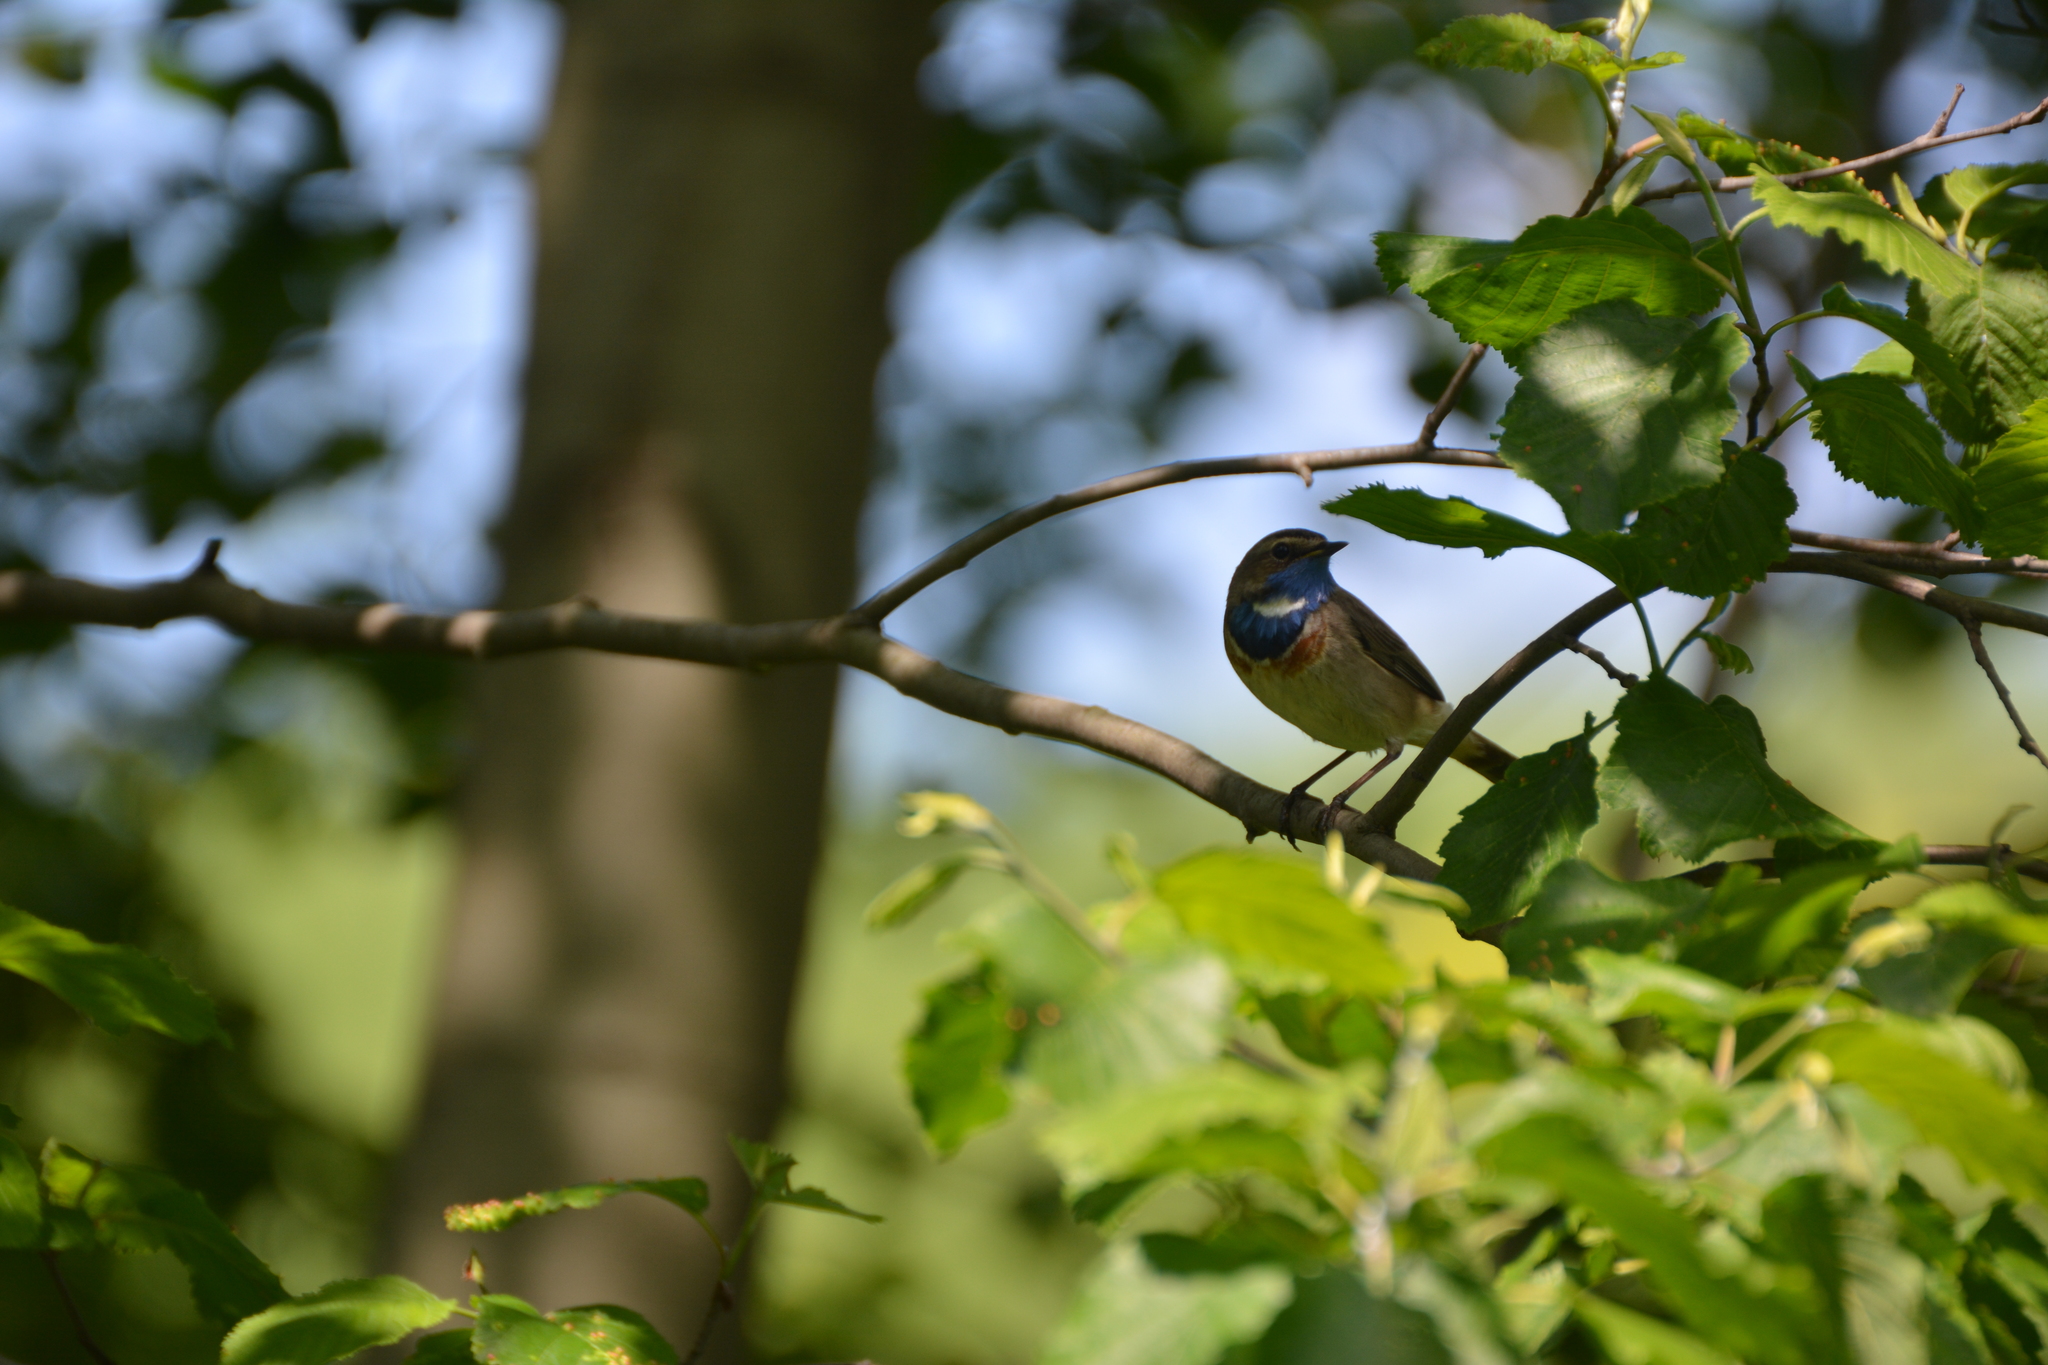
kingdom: Animalia
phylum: Chordata
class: Aves
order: Passeriformes
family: Muscicapidae
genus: Luscinia
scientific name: Luscinia svecica
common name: Bluethroat
